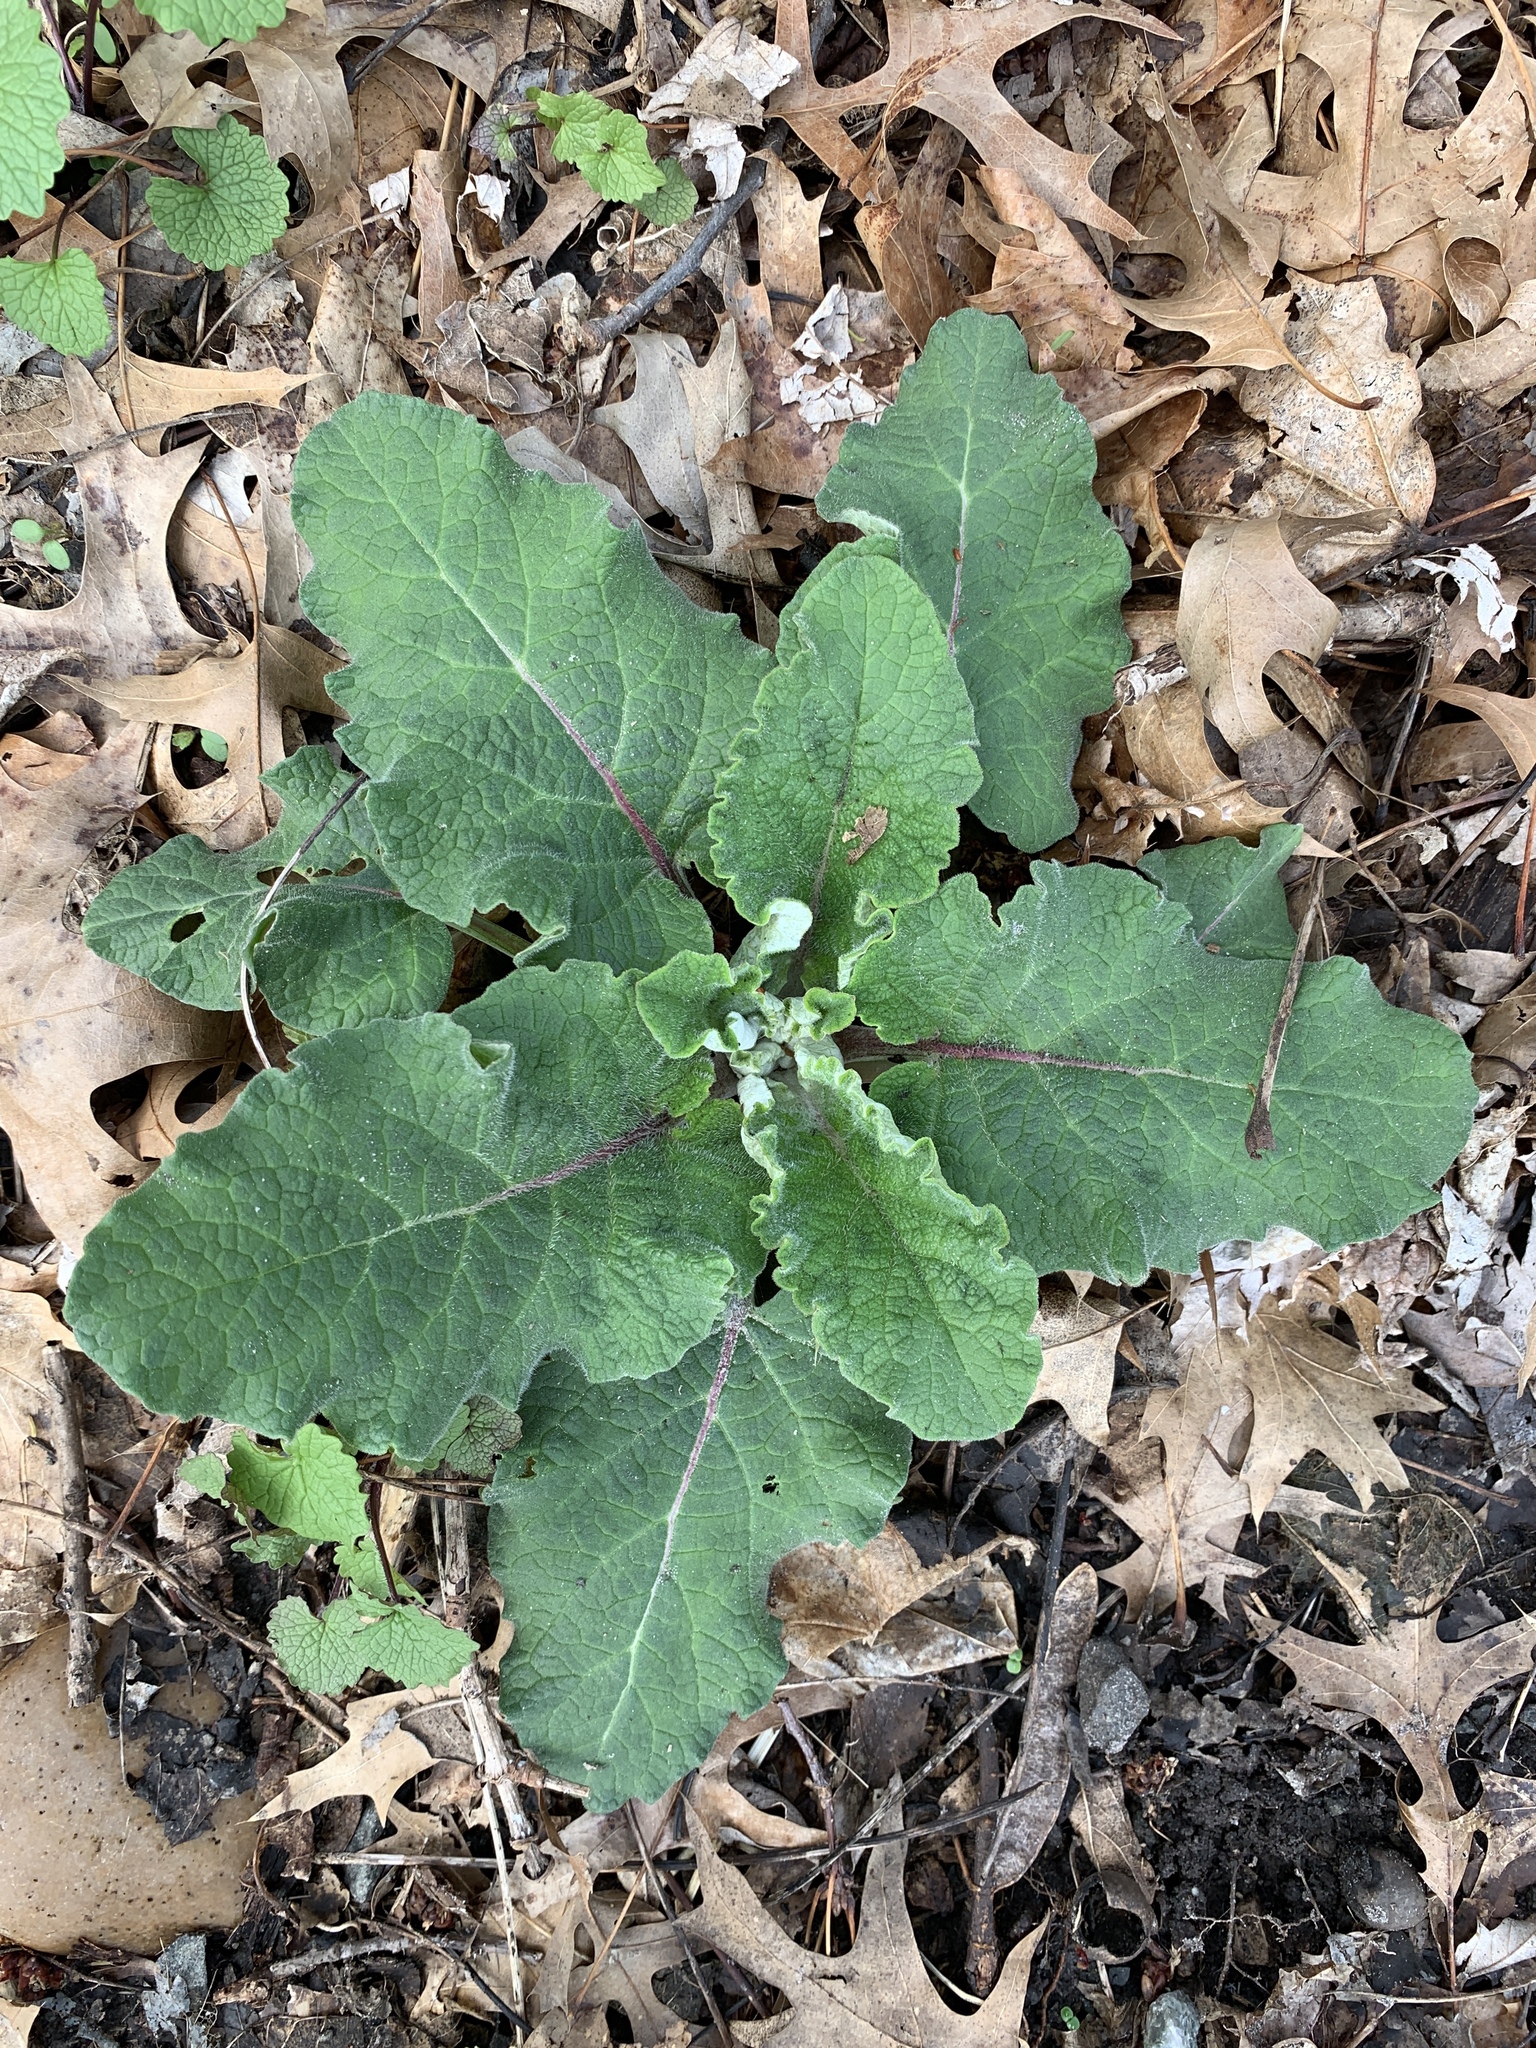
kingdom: Plantae
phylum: Tracheophyta
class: Magnoliopsida
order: Asterales
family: Asteraceae
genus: Arctium
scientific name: Arctium
